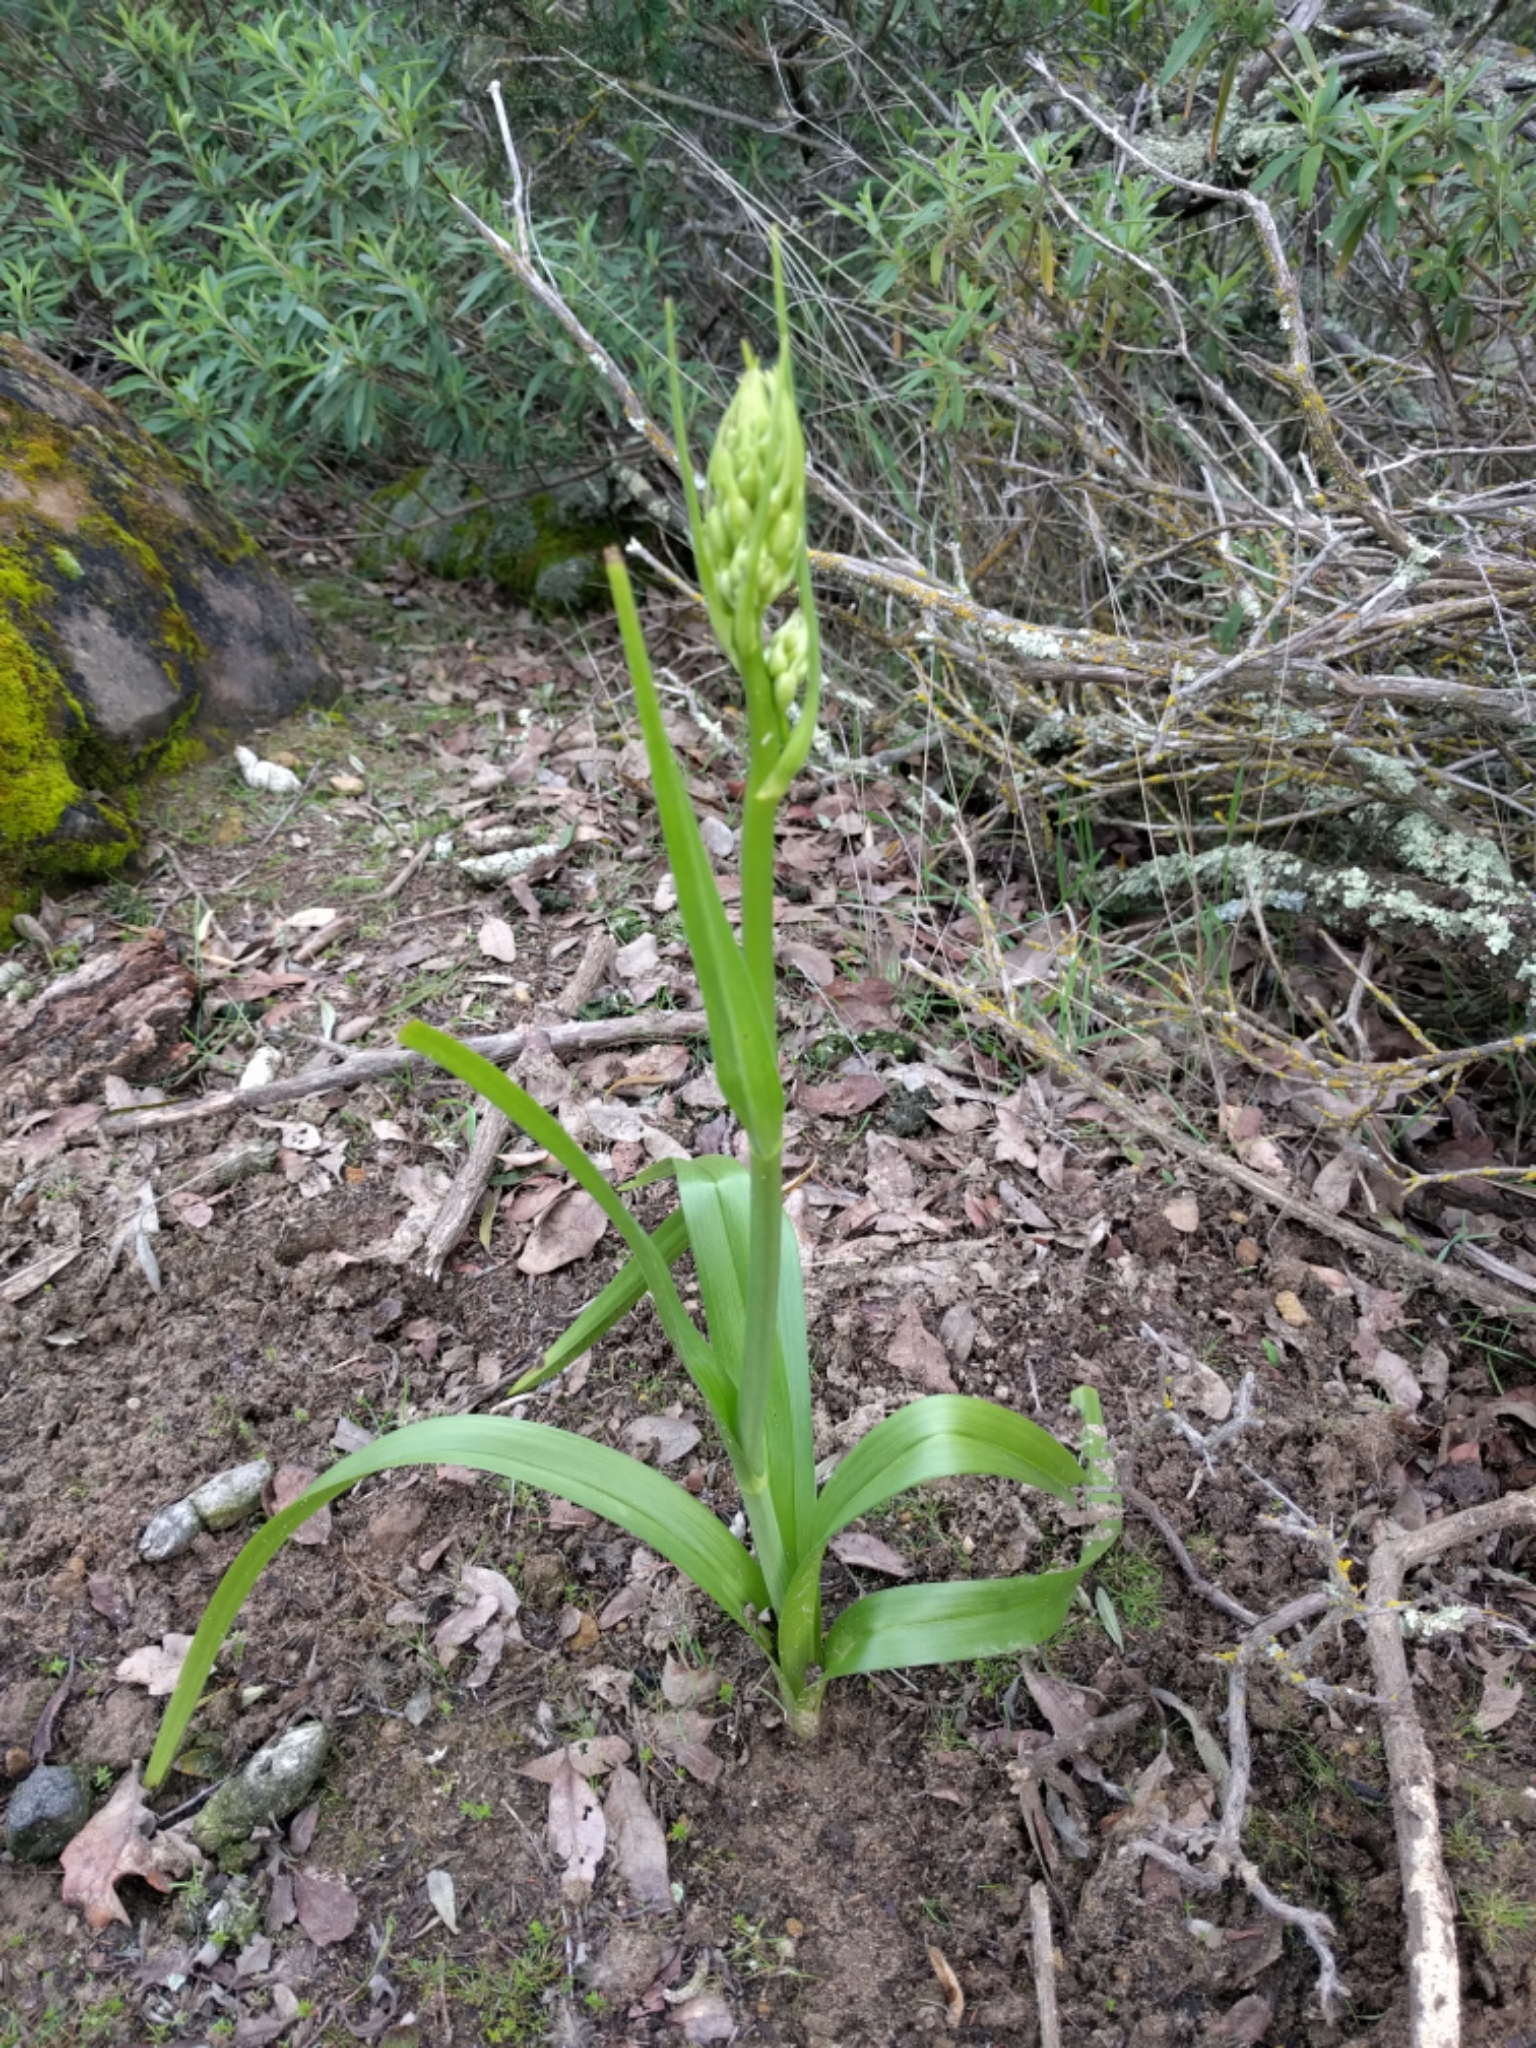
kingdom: Plantae
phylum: Tracheophyta
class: Liliopsida
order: Liliales
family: Melanthiaceae
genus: Toxicoscordion
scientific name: Toxicoscordion fremontii
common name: Fremont's death camas
